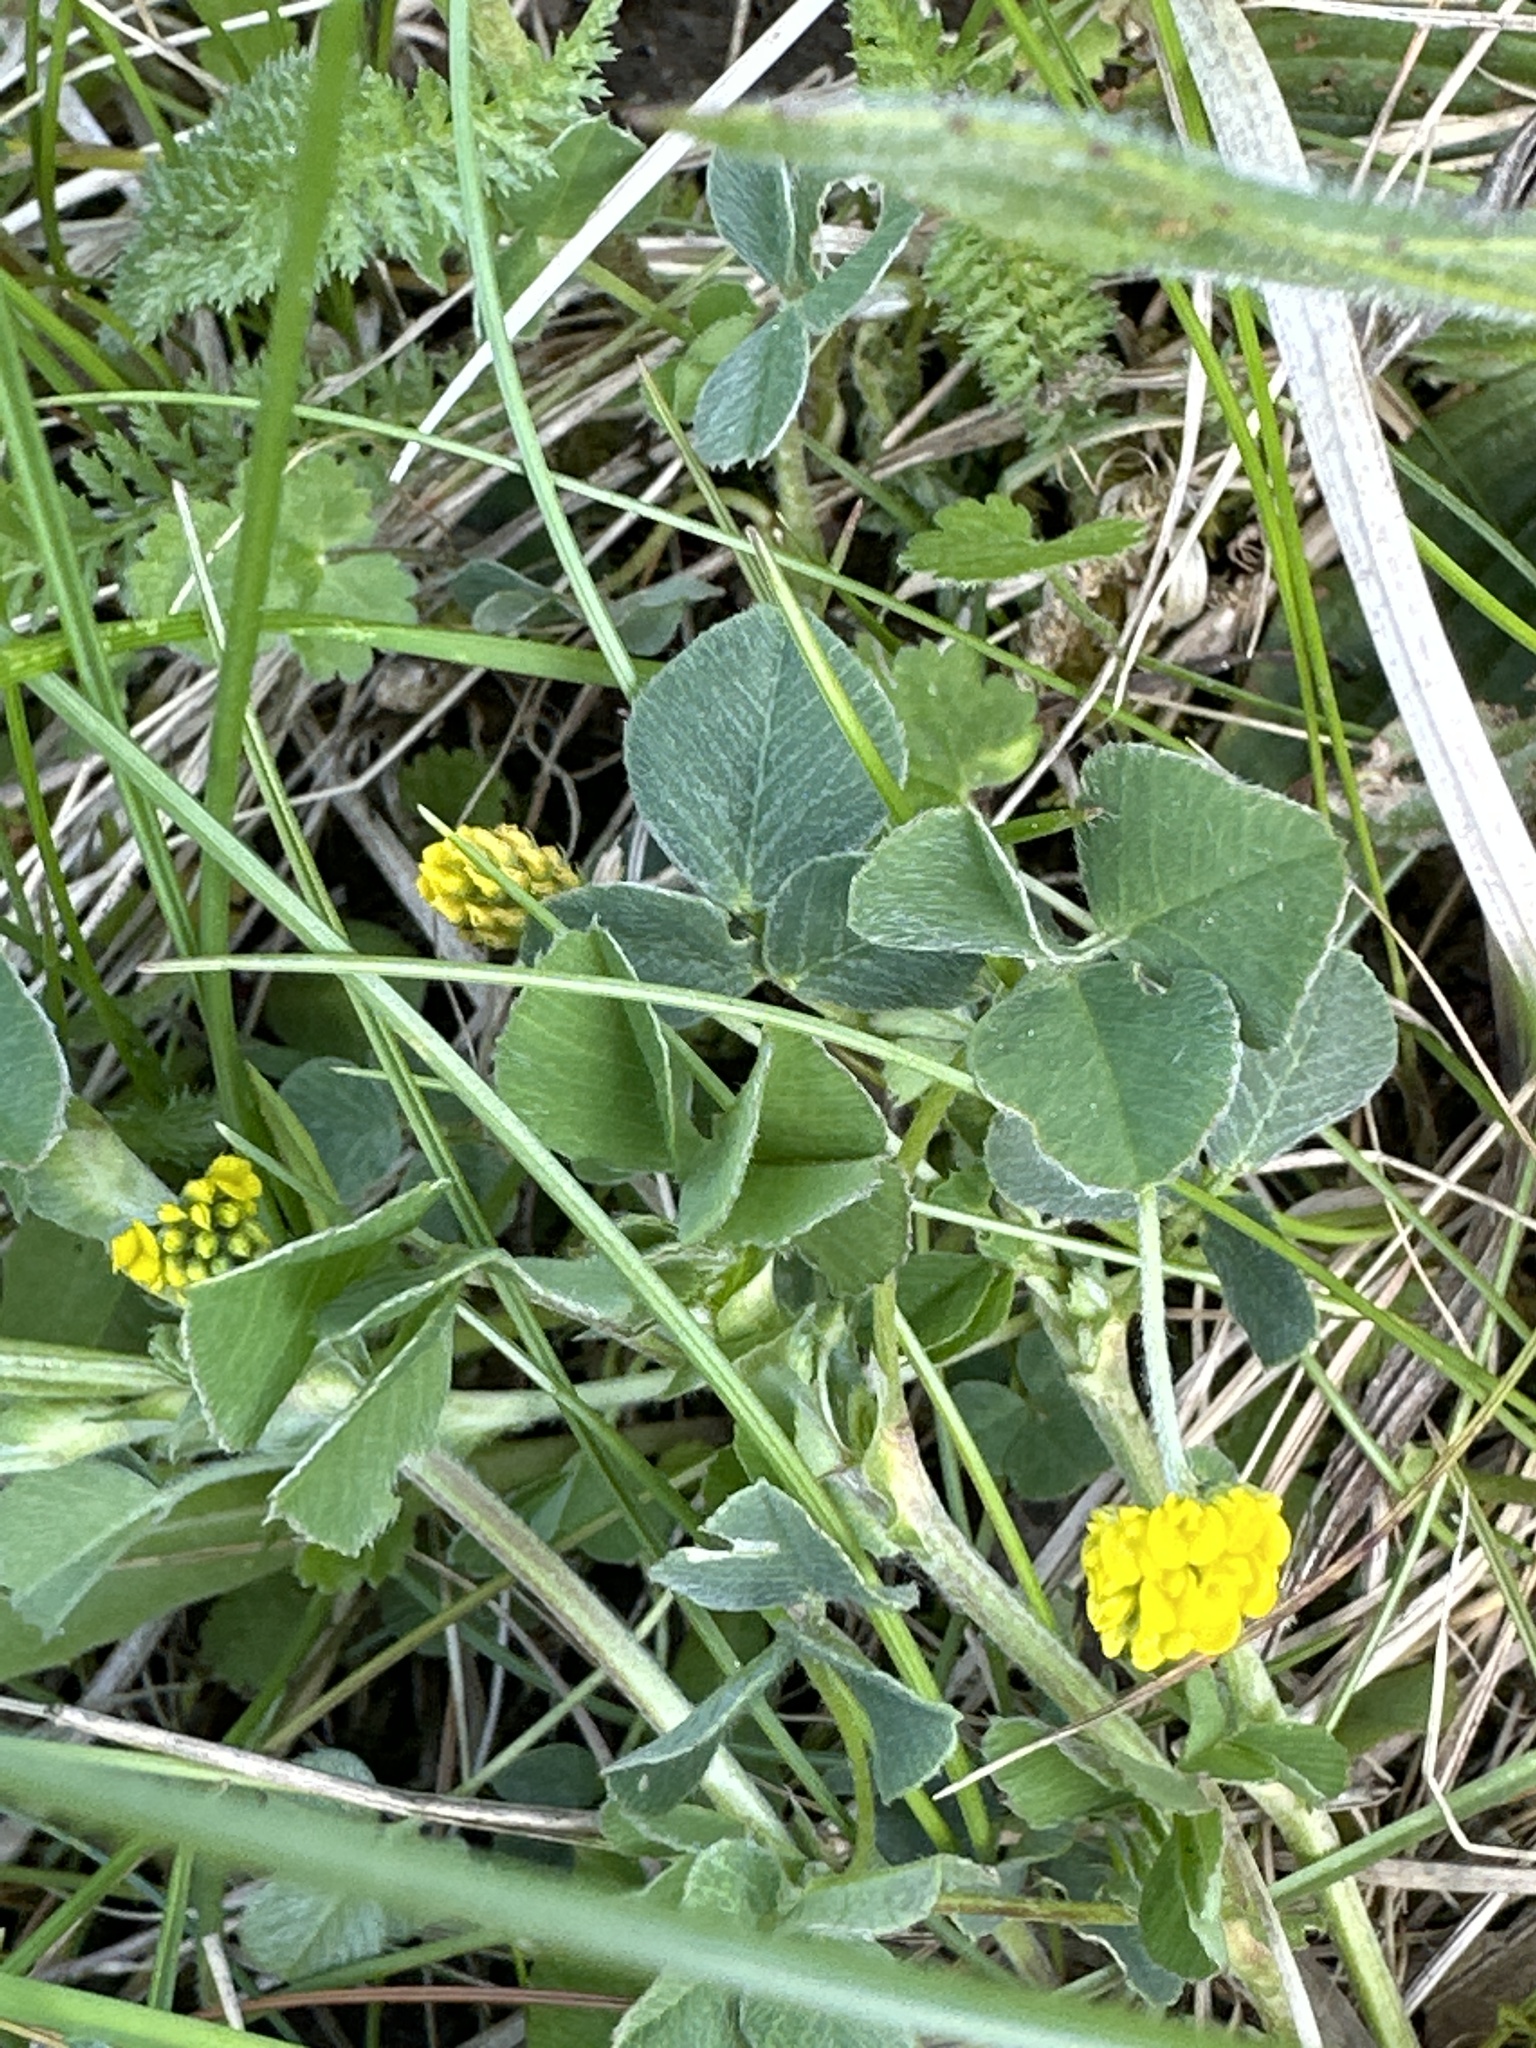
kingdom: Plantae
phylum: Tracheophyta
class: Magnoliopsida
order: Fabales
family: Fabaceae
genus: Medicago
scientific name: Medicago lupulina
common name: Black medick
